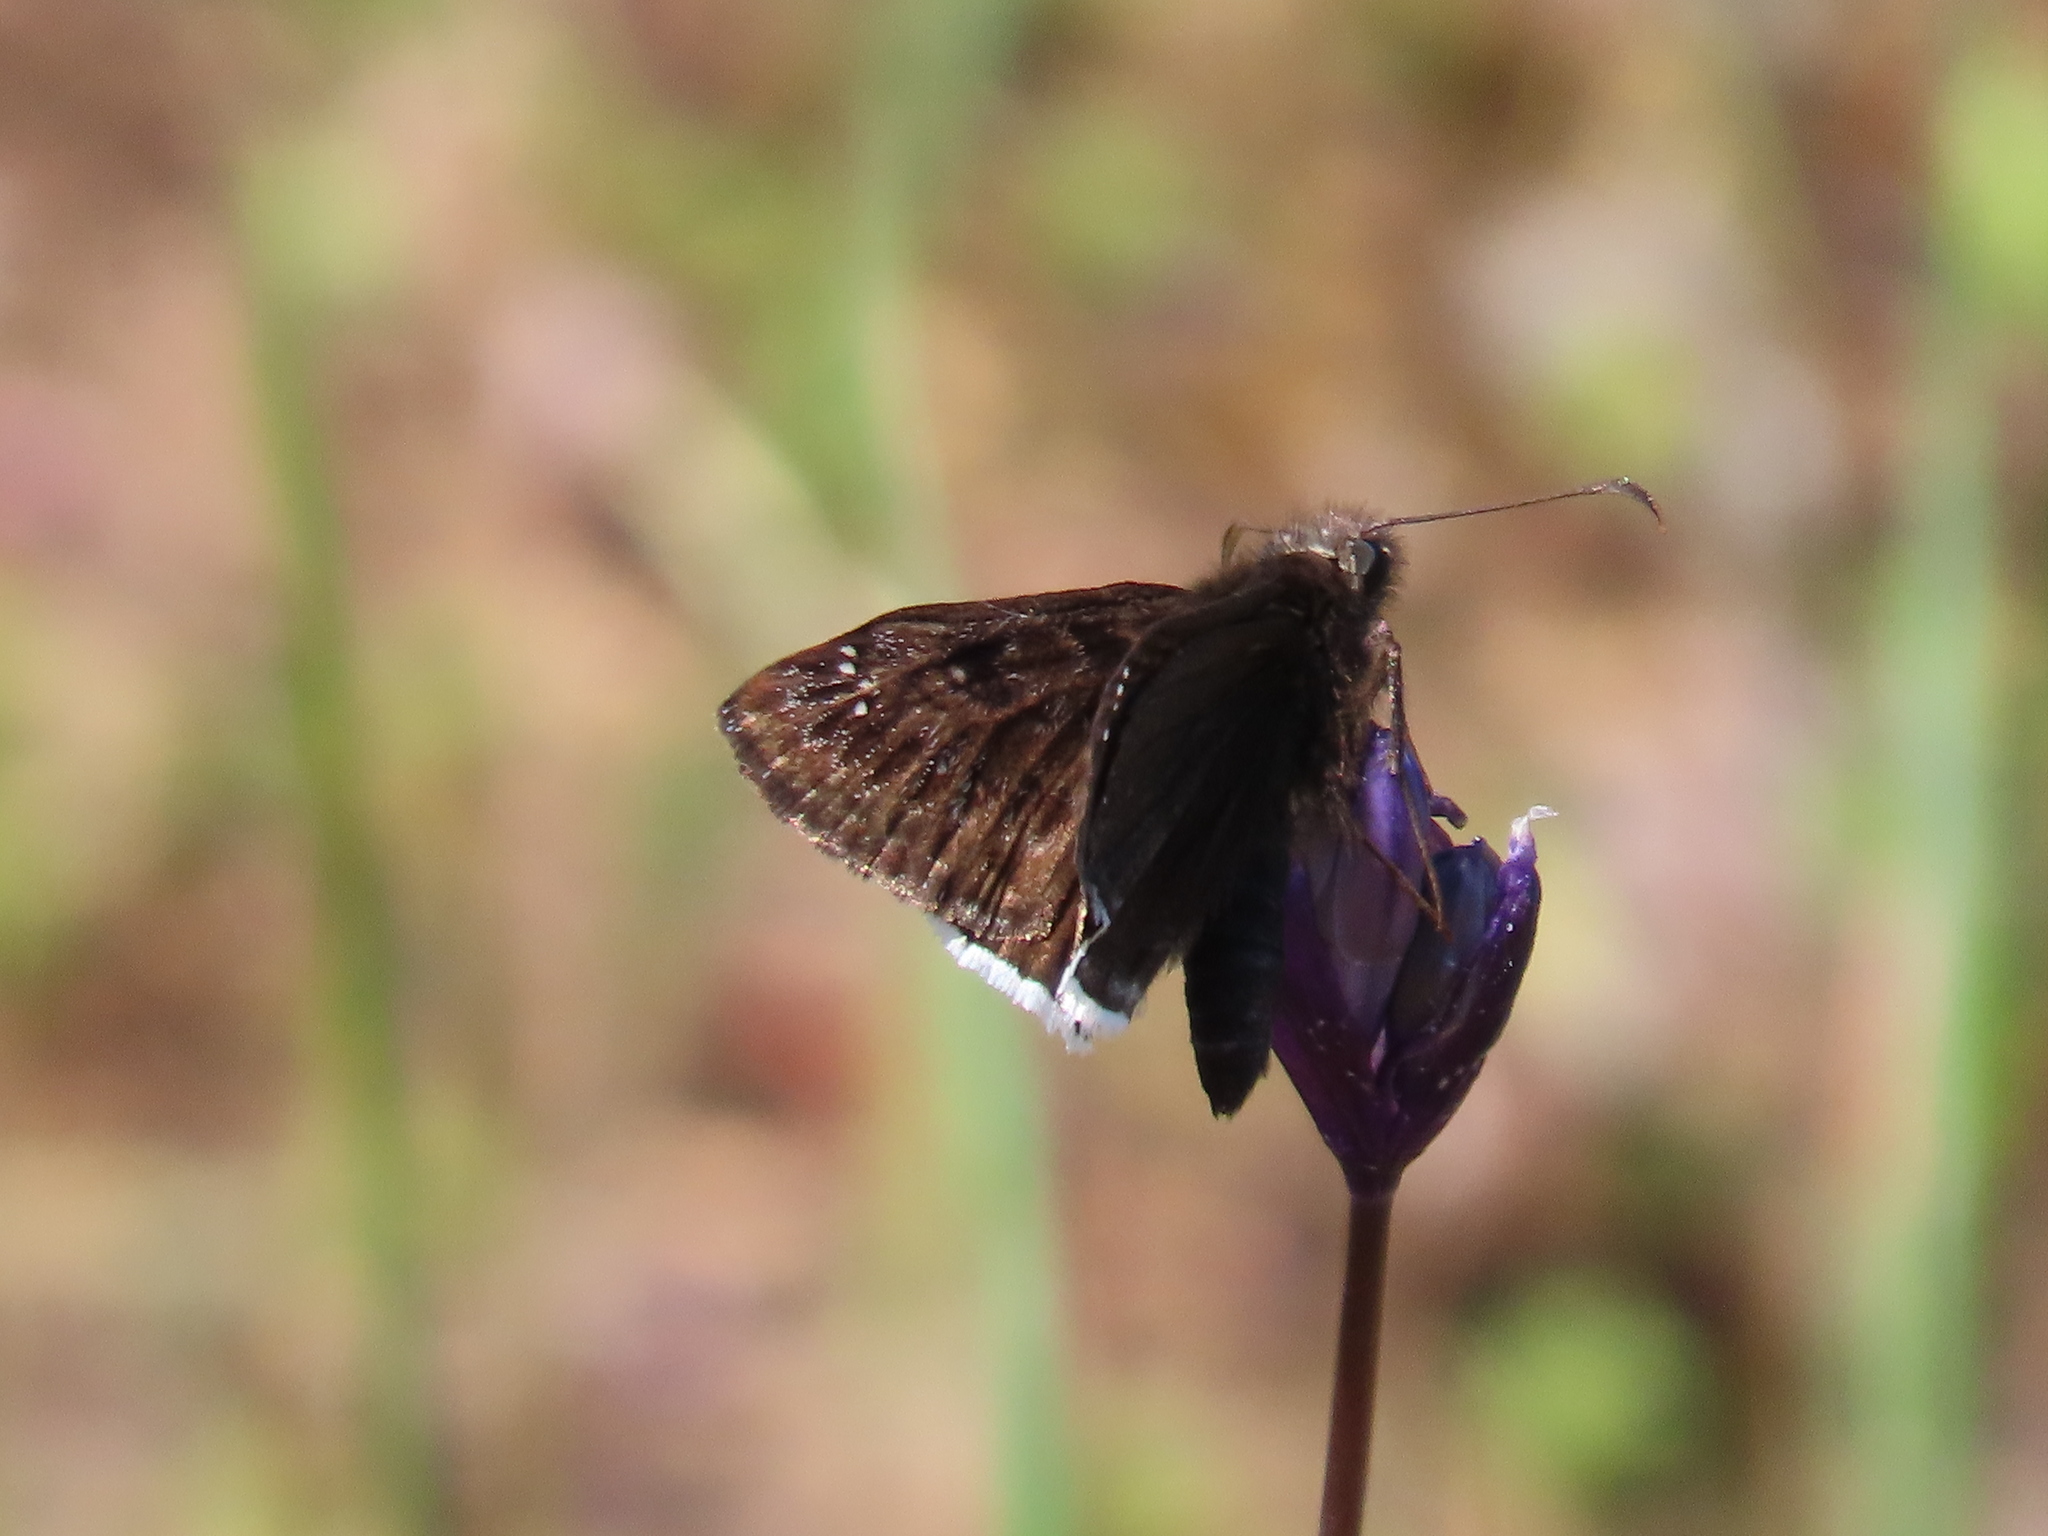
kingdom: Animalia
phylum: Arthropoda
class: Insecta
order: Lepidoptera
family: Hesperiidae
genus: Erynnis
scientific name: Erynnis tristis
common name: Mournful duskywing
